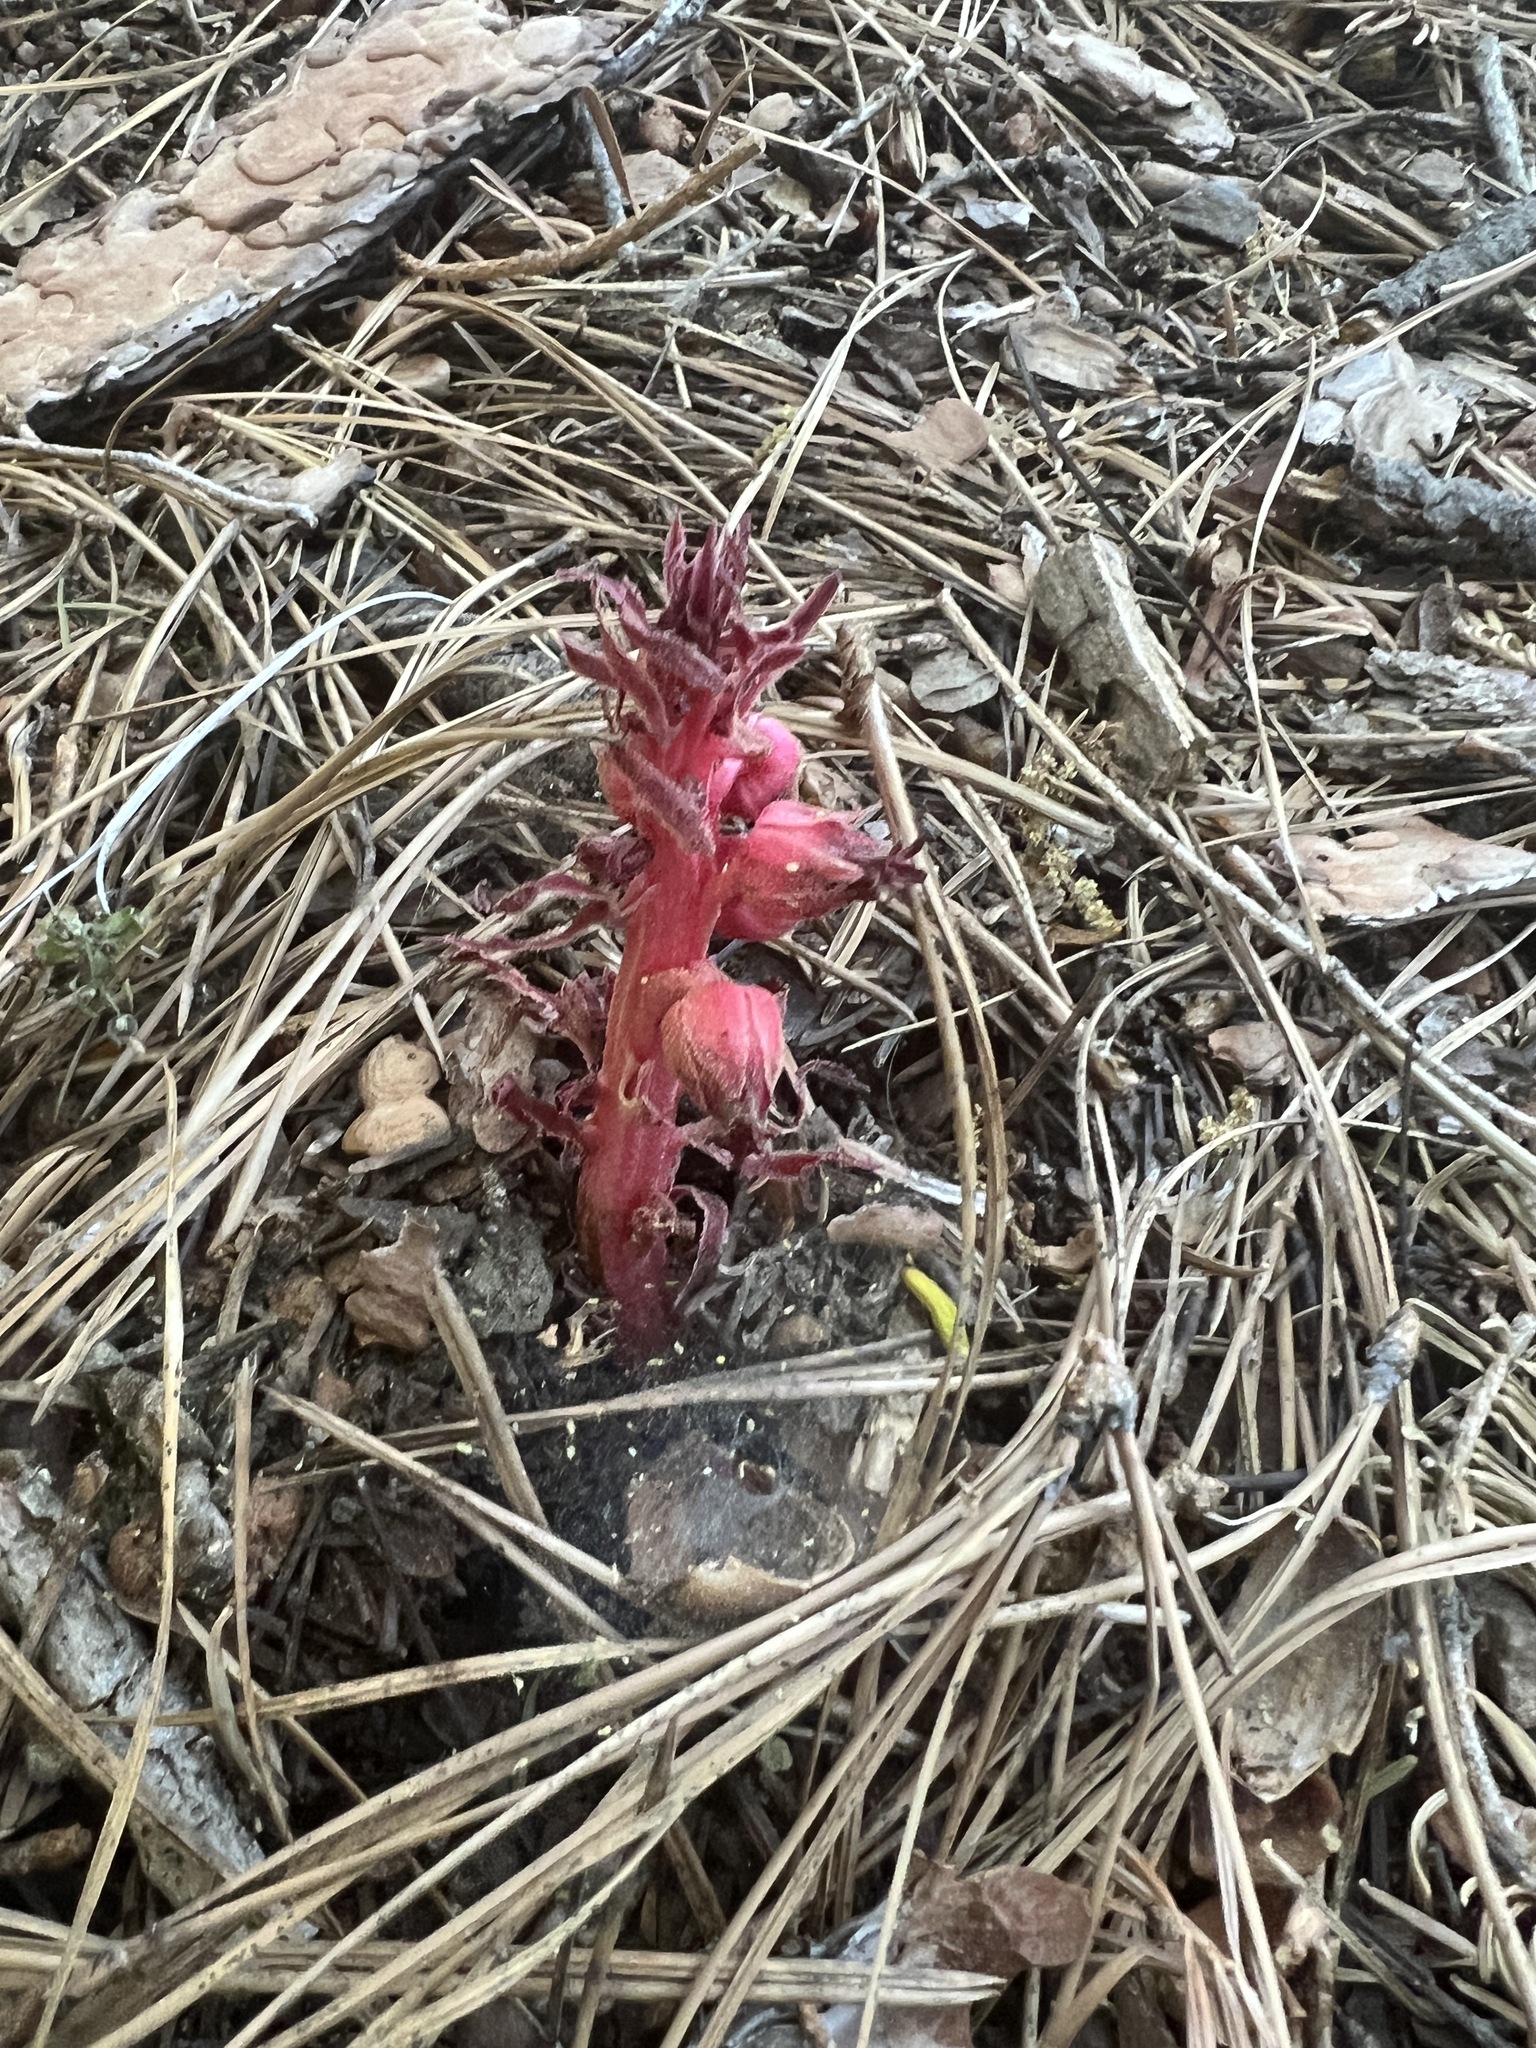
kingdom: Plantae
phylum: Tracheophyta
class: Magnoliopsida
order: Ericales
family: Ericaceae
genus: Sarcodes
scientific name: Sarcodes sanguinea
